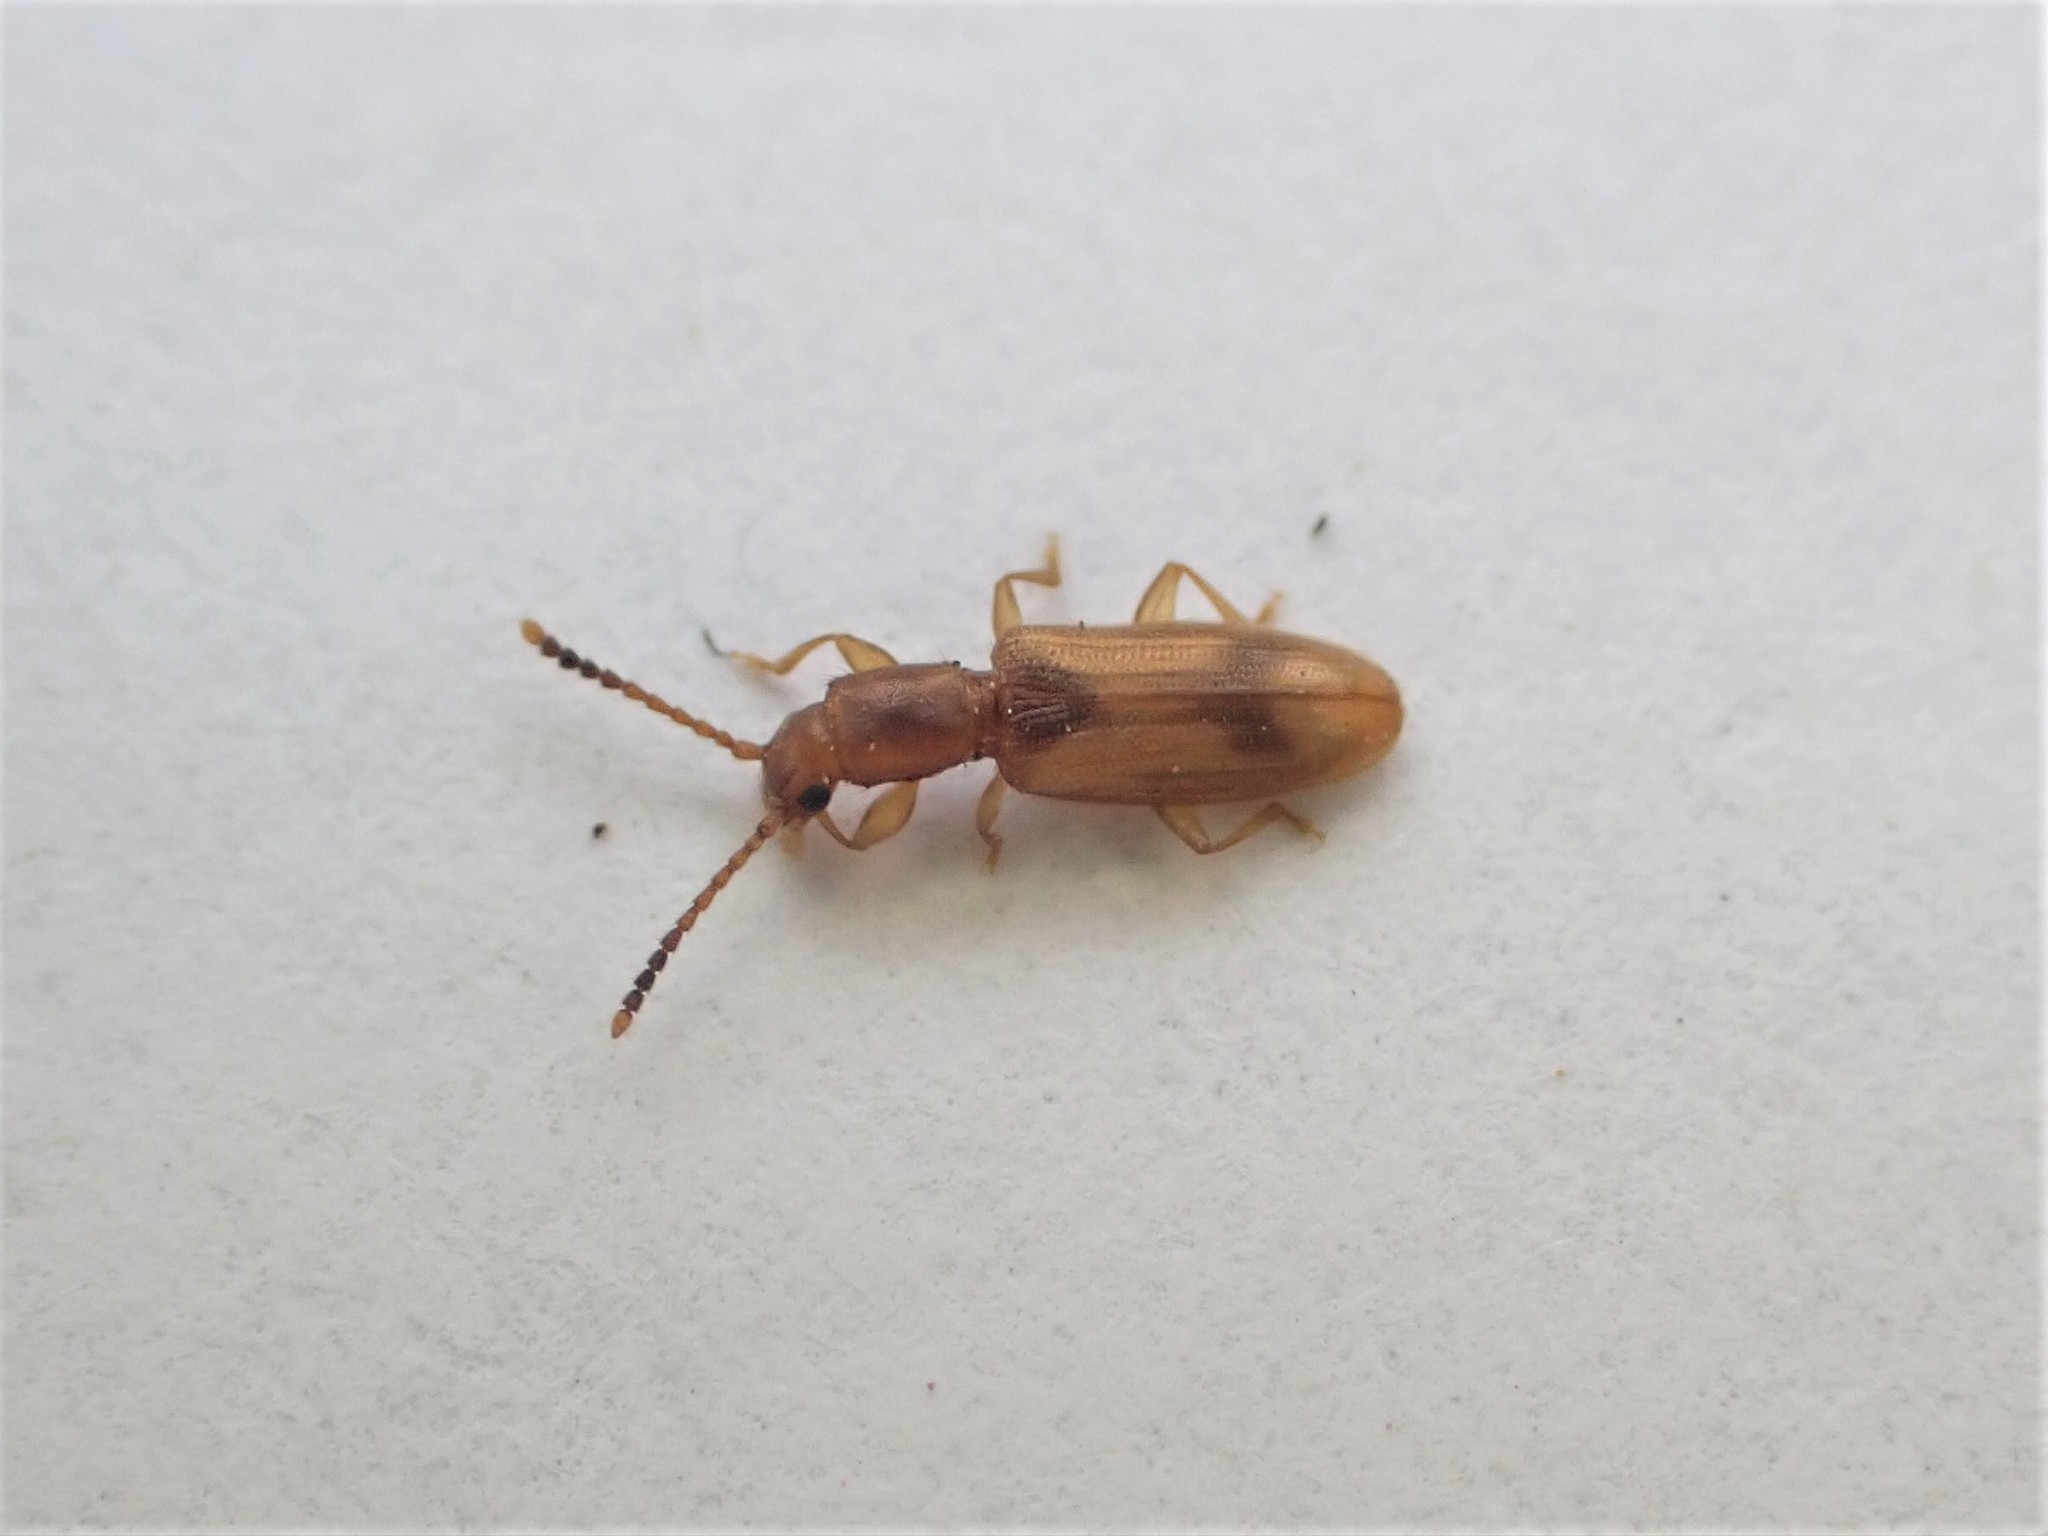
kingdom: Animalia
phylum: Arthropoda
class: Insecta
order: Coleoptera
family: Silvanidae
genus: Cryptamorpha
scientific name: Cryptamorpha desjardinsi
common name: Cryptamorpha
